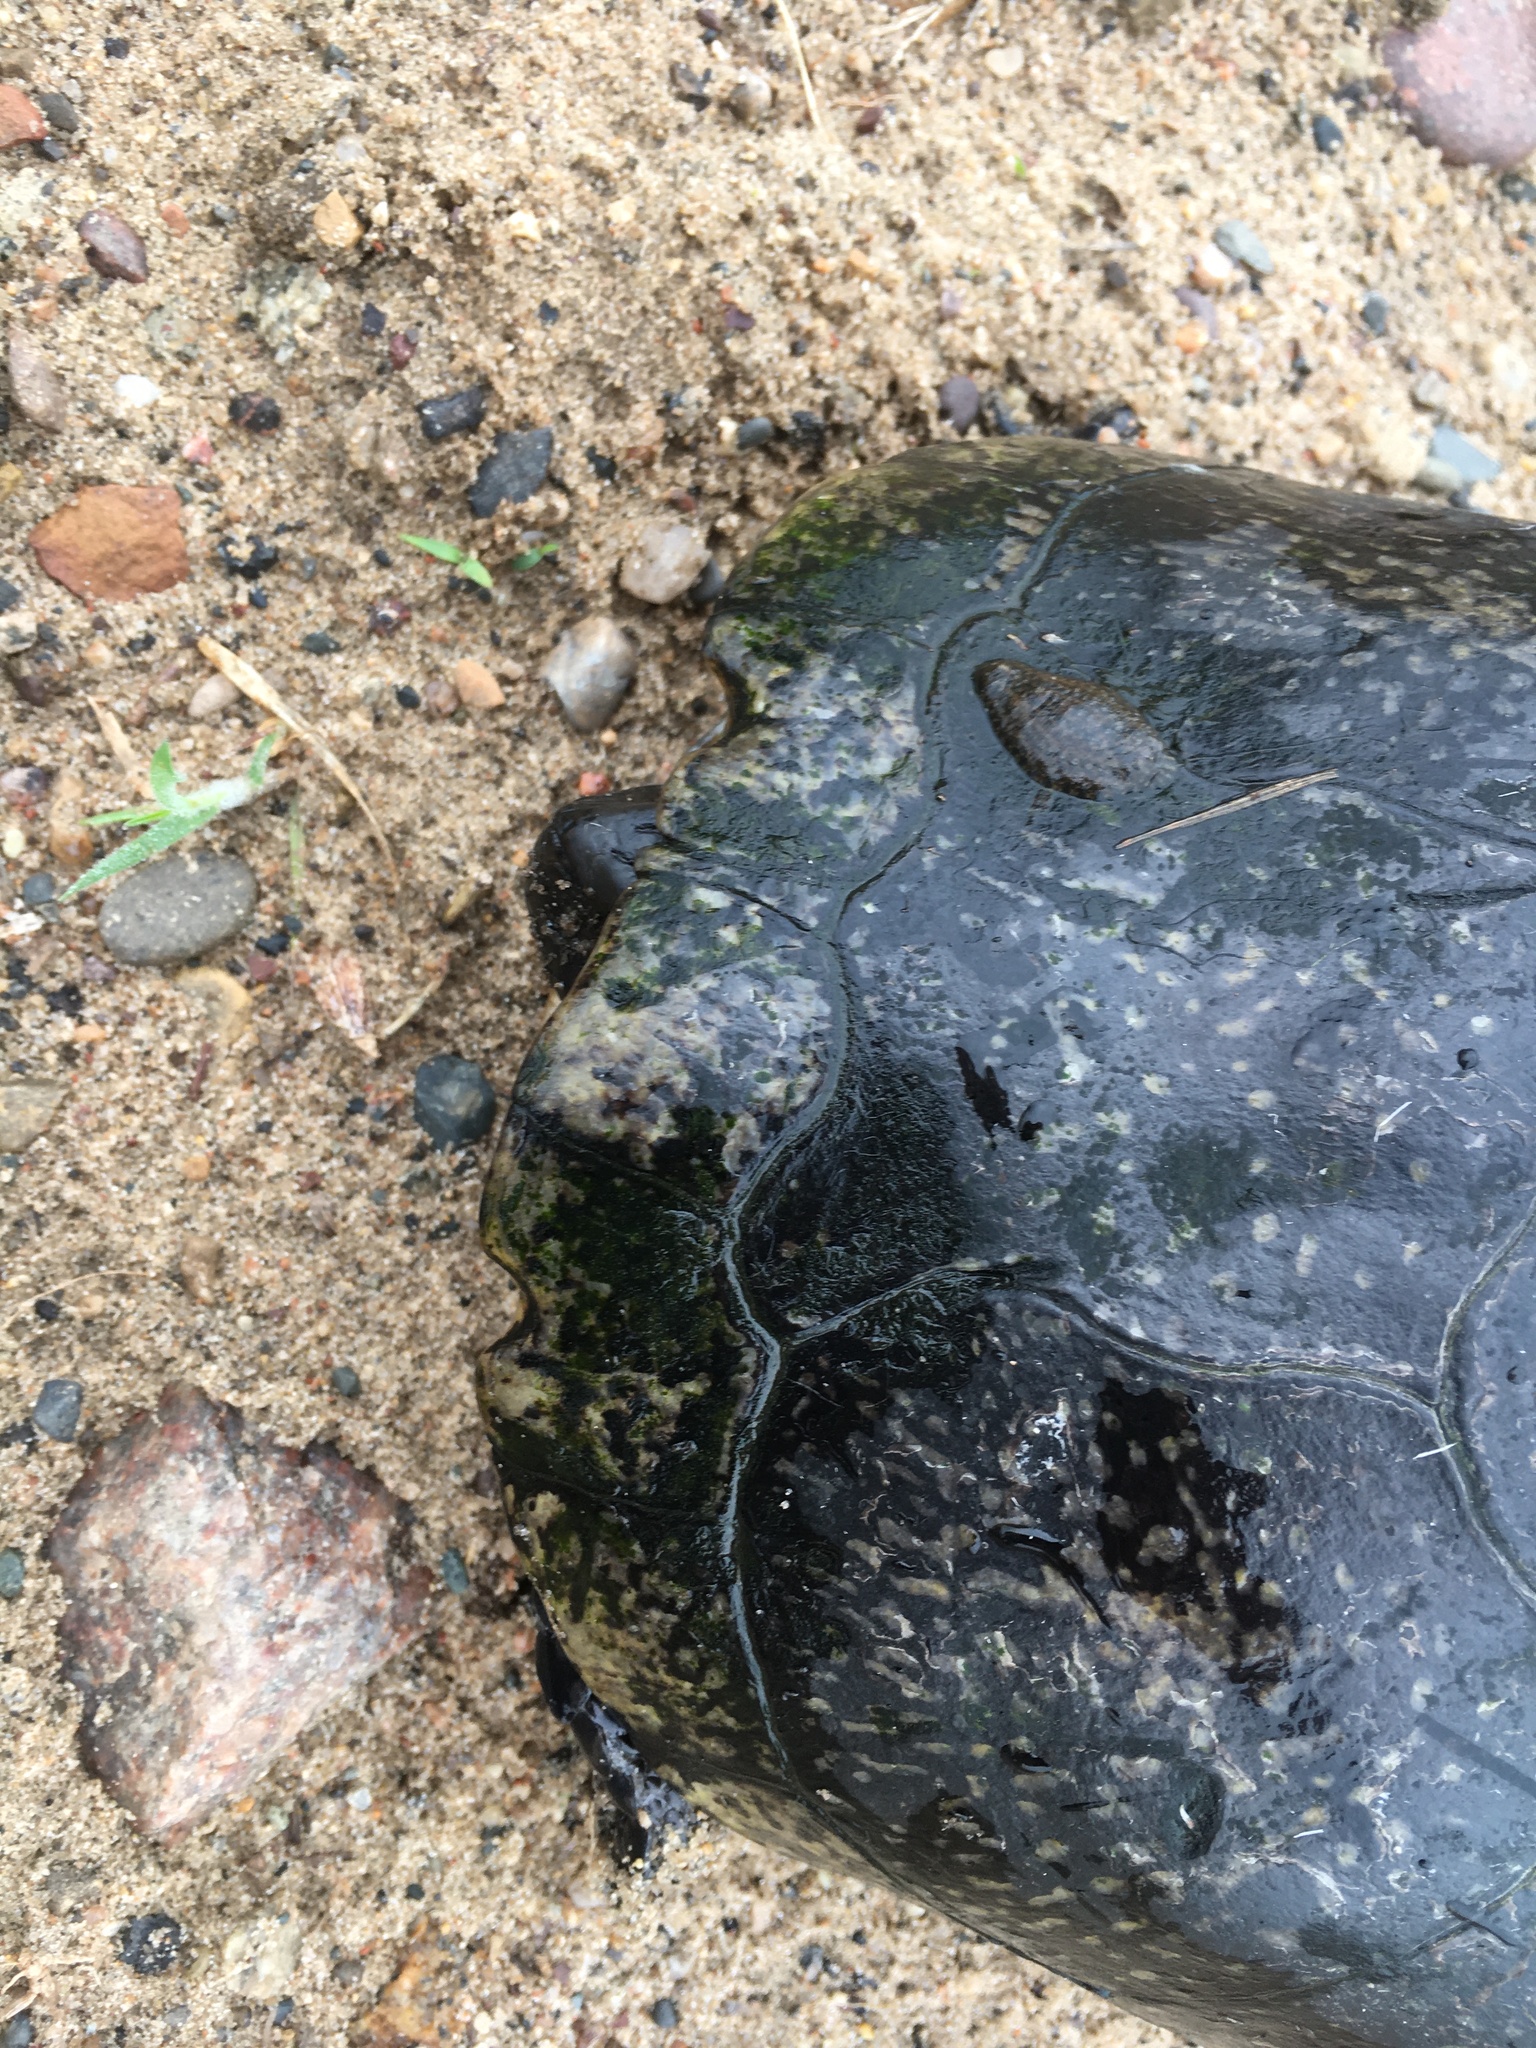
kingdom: Animalia
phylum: Chordata
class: Testudines
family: Emydidae
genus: Emys
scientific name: Emys blandingii
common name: Blanding's turtle
